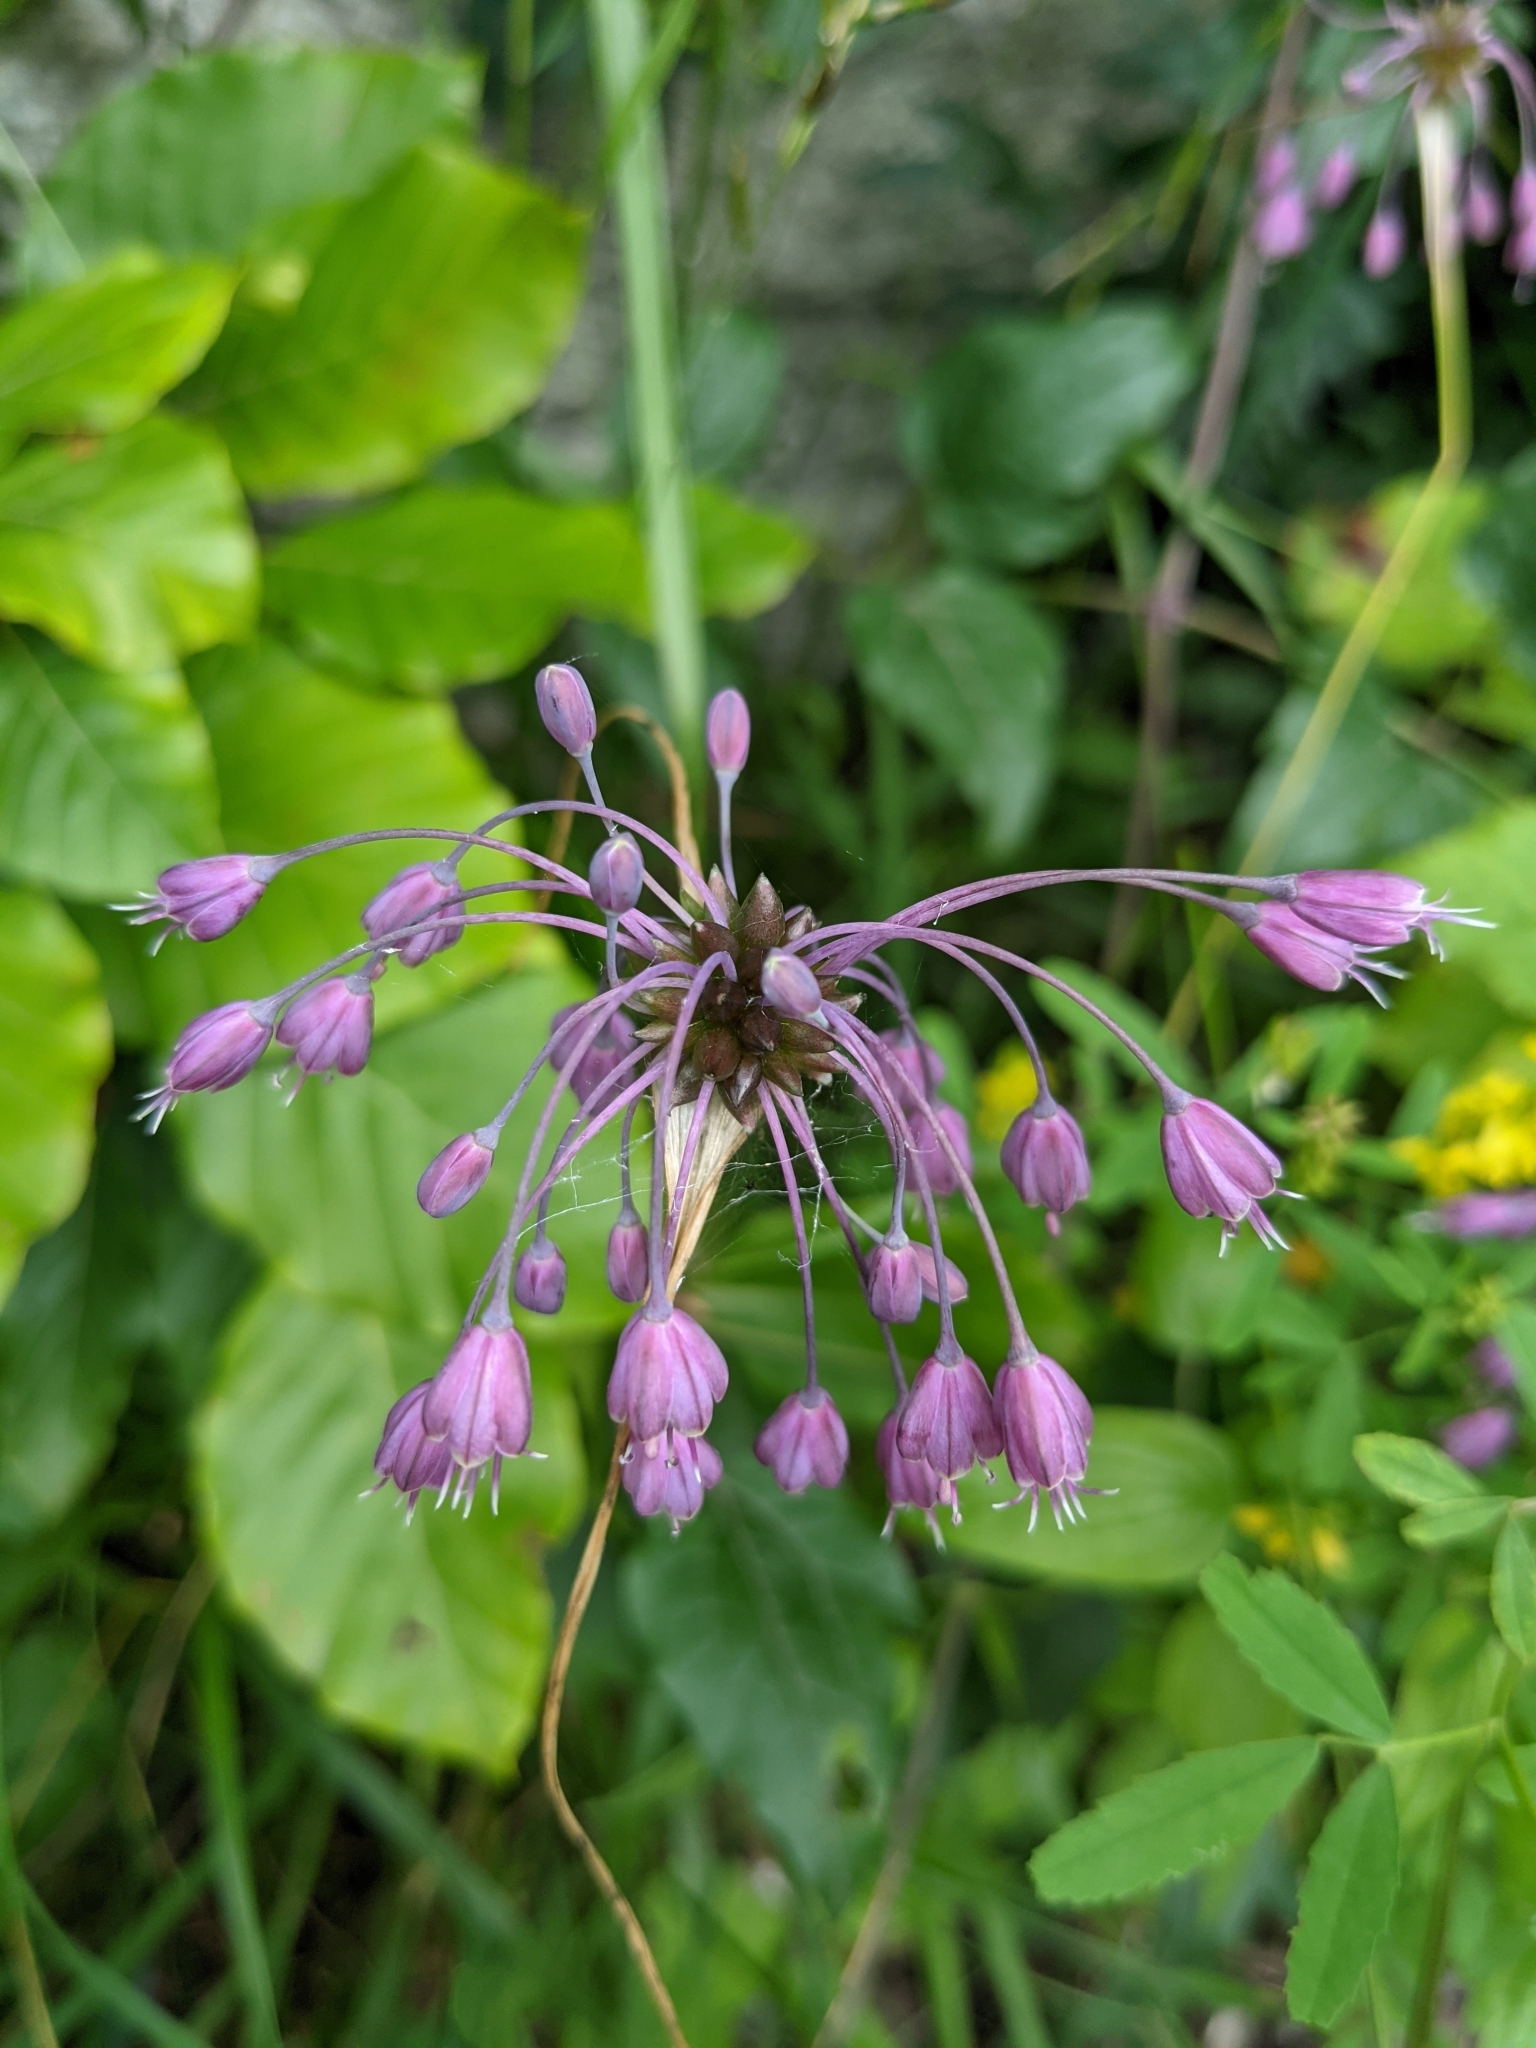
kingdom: Plantae
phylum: Tracheophyta
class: Liliopsida
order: Asparagales
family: Amaryllidaceae
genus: Allium
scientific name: Allium carinatum
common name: Keeled garlic
